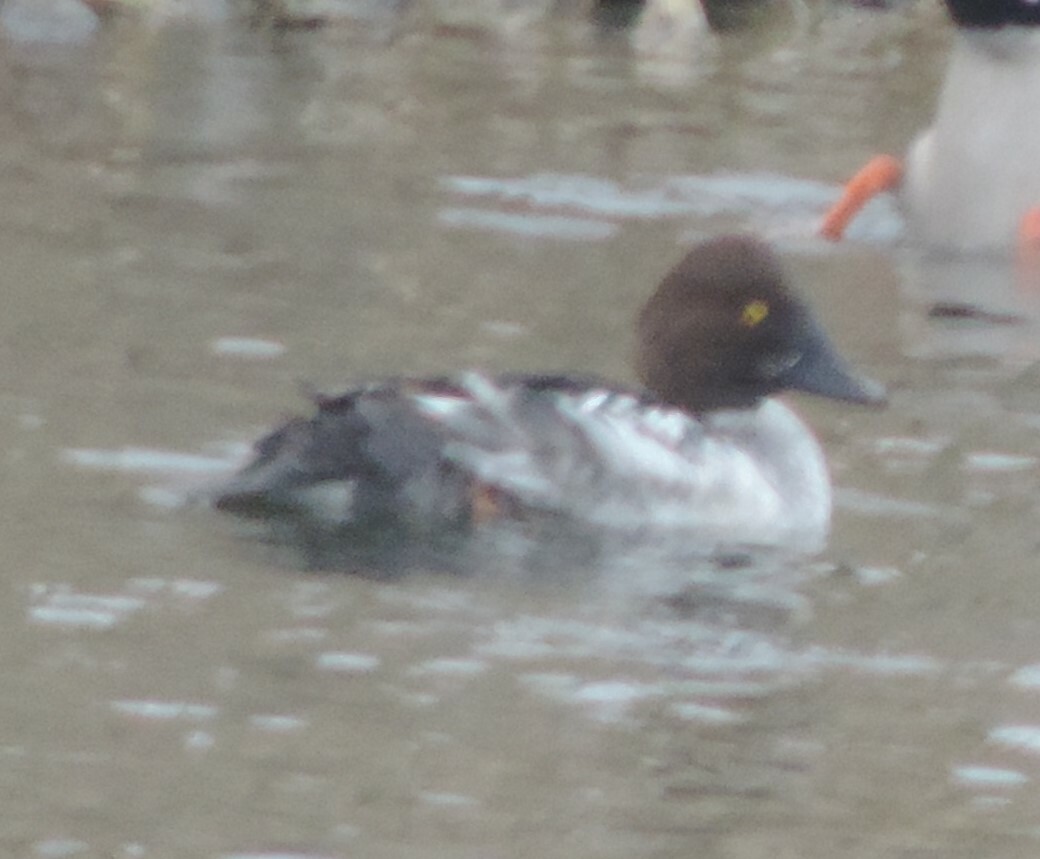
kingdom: Animalia
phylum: Chordata
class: Aves
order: Anseriformes
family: Anatidae
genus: Bucephala
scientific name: Bucephala clangula
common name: Common goldeneye
